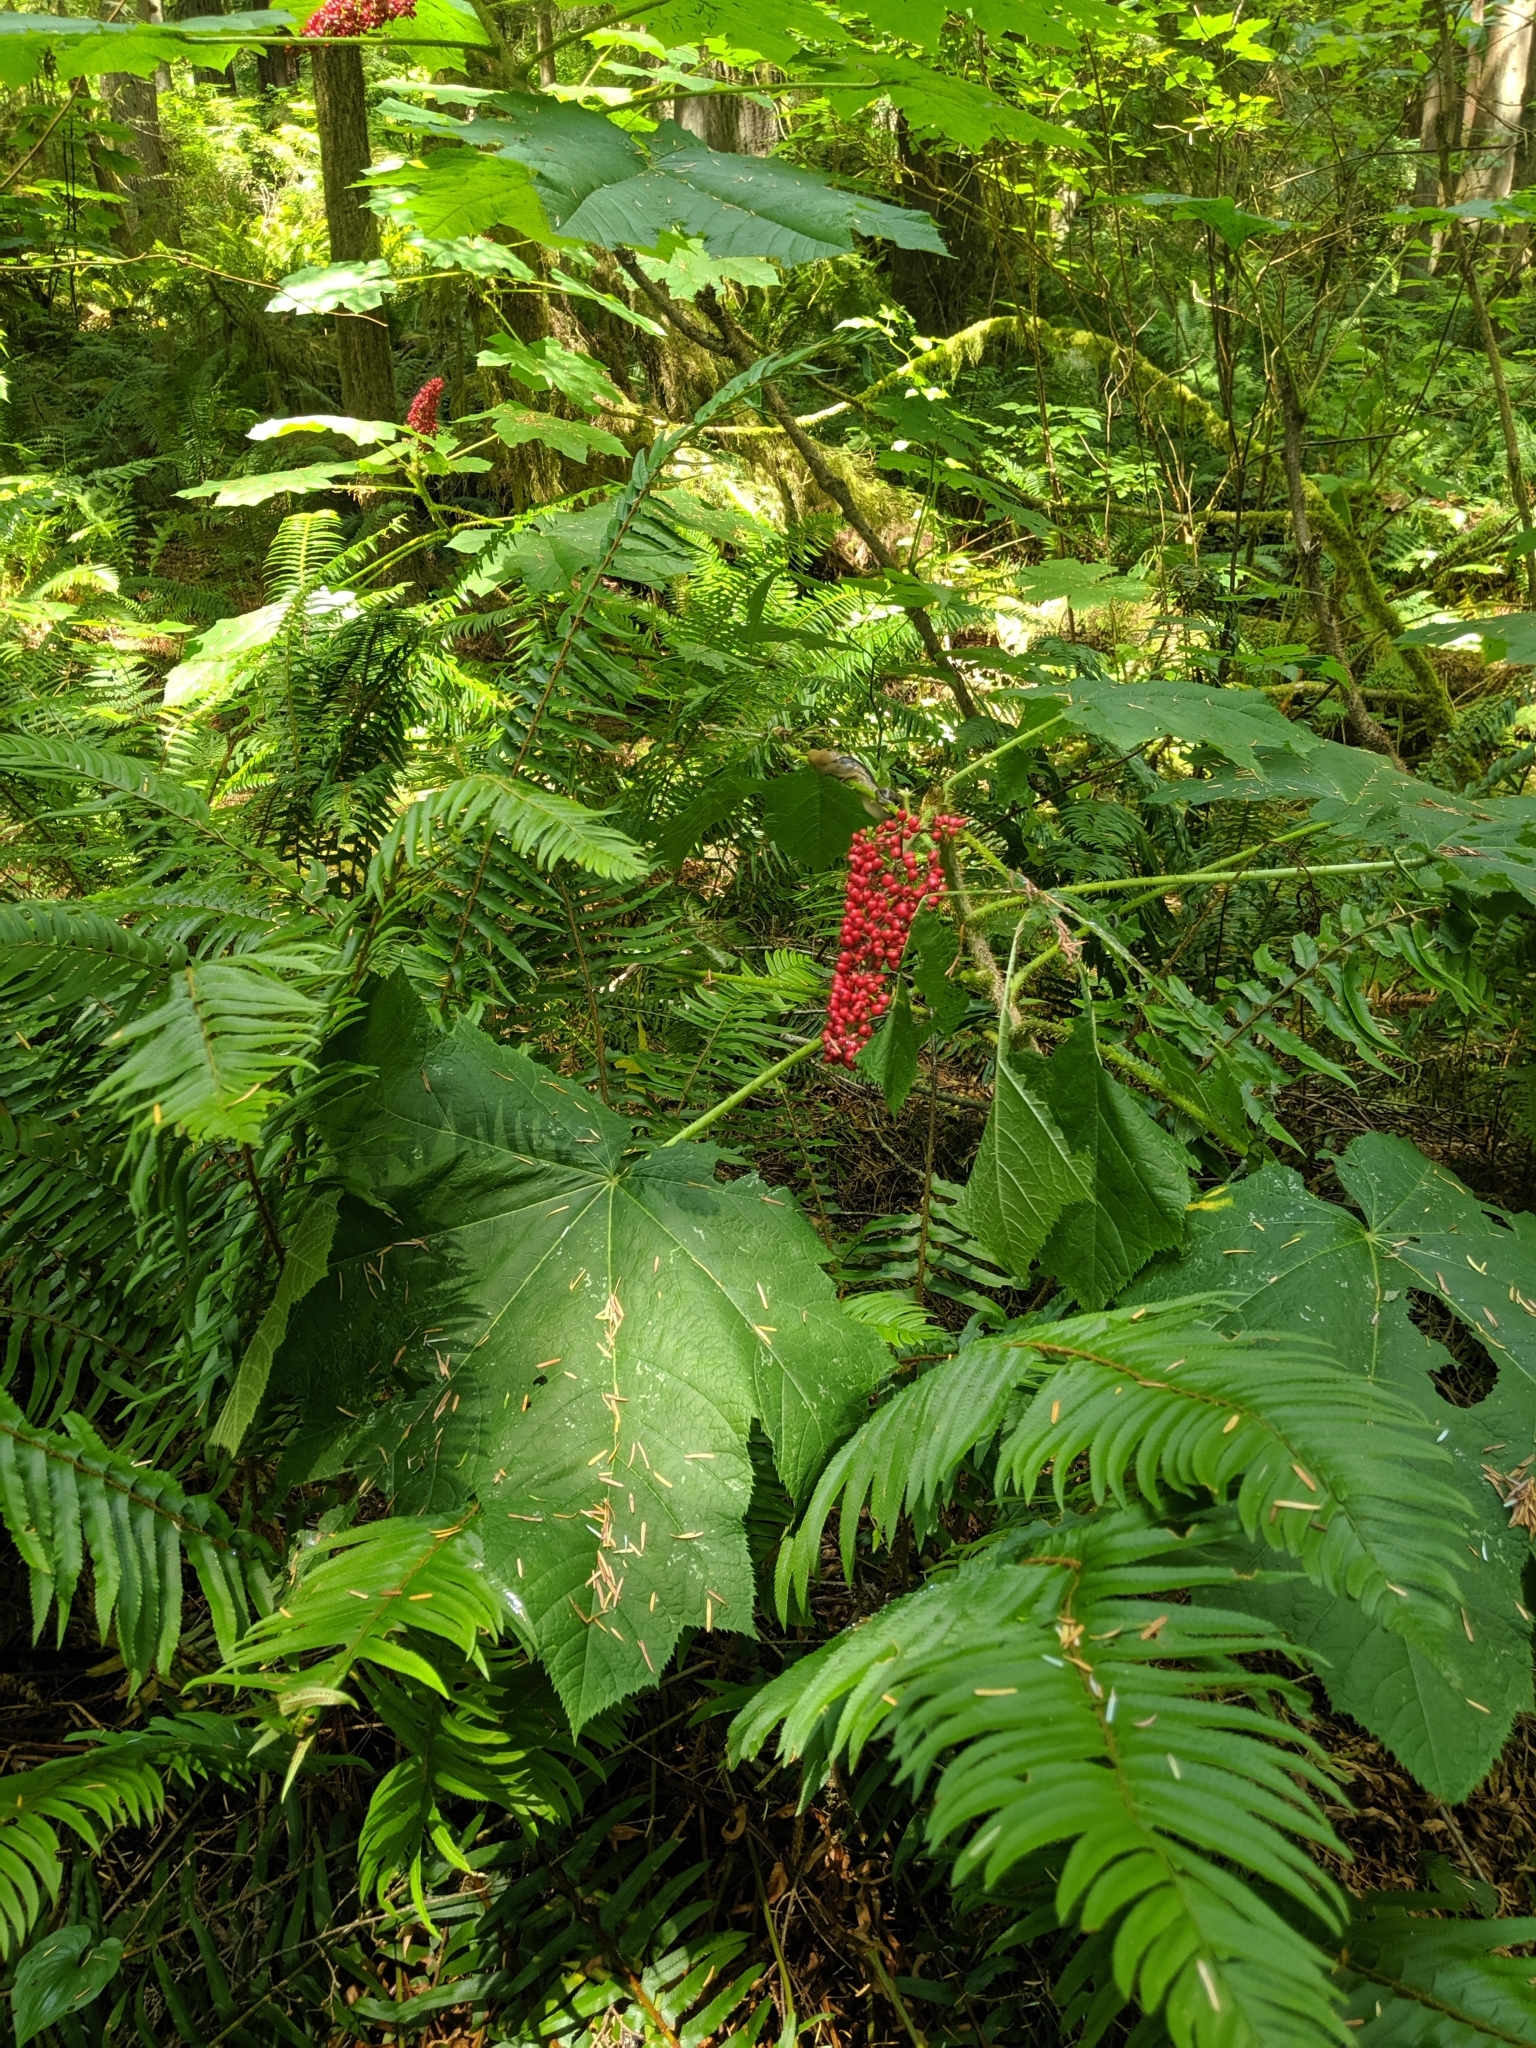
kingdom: Plantae
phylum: Tracheophyta
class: Magnoliopsida
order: Apiales
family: Araliaceae
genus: Oplopanax
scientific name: Oplopanax horridus
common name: Devil's walking-stick
